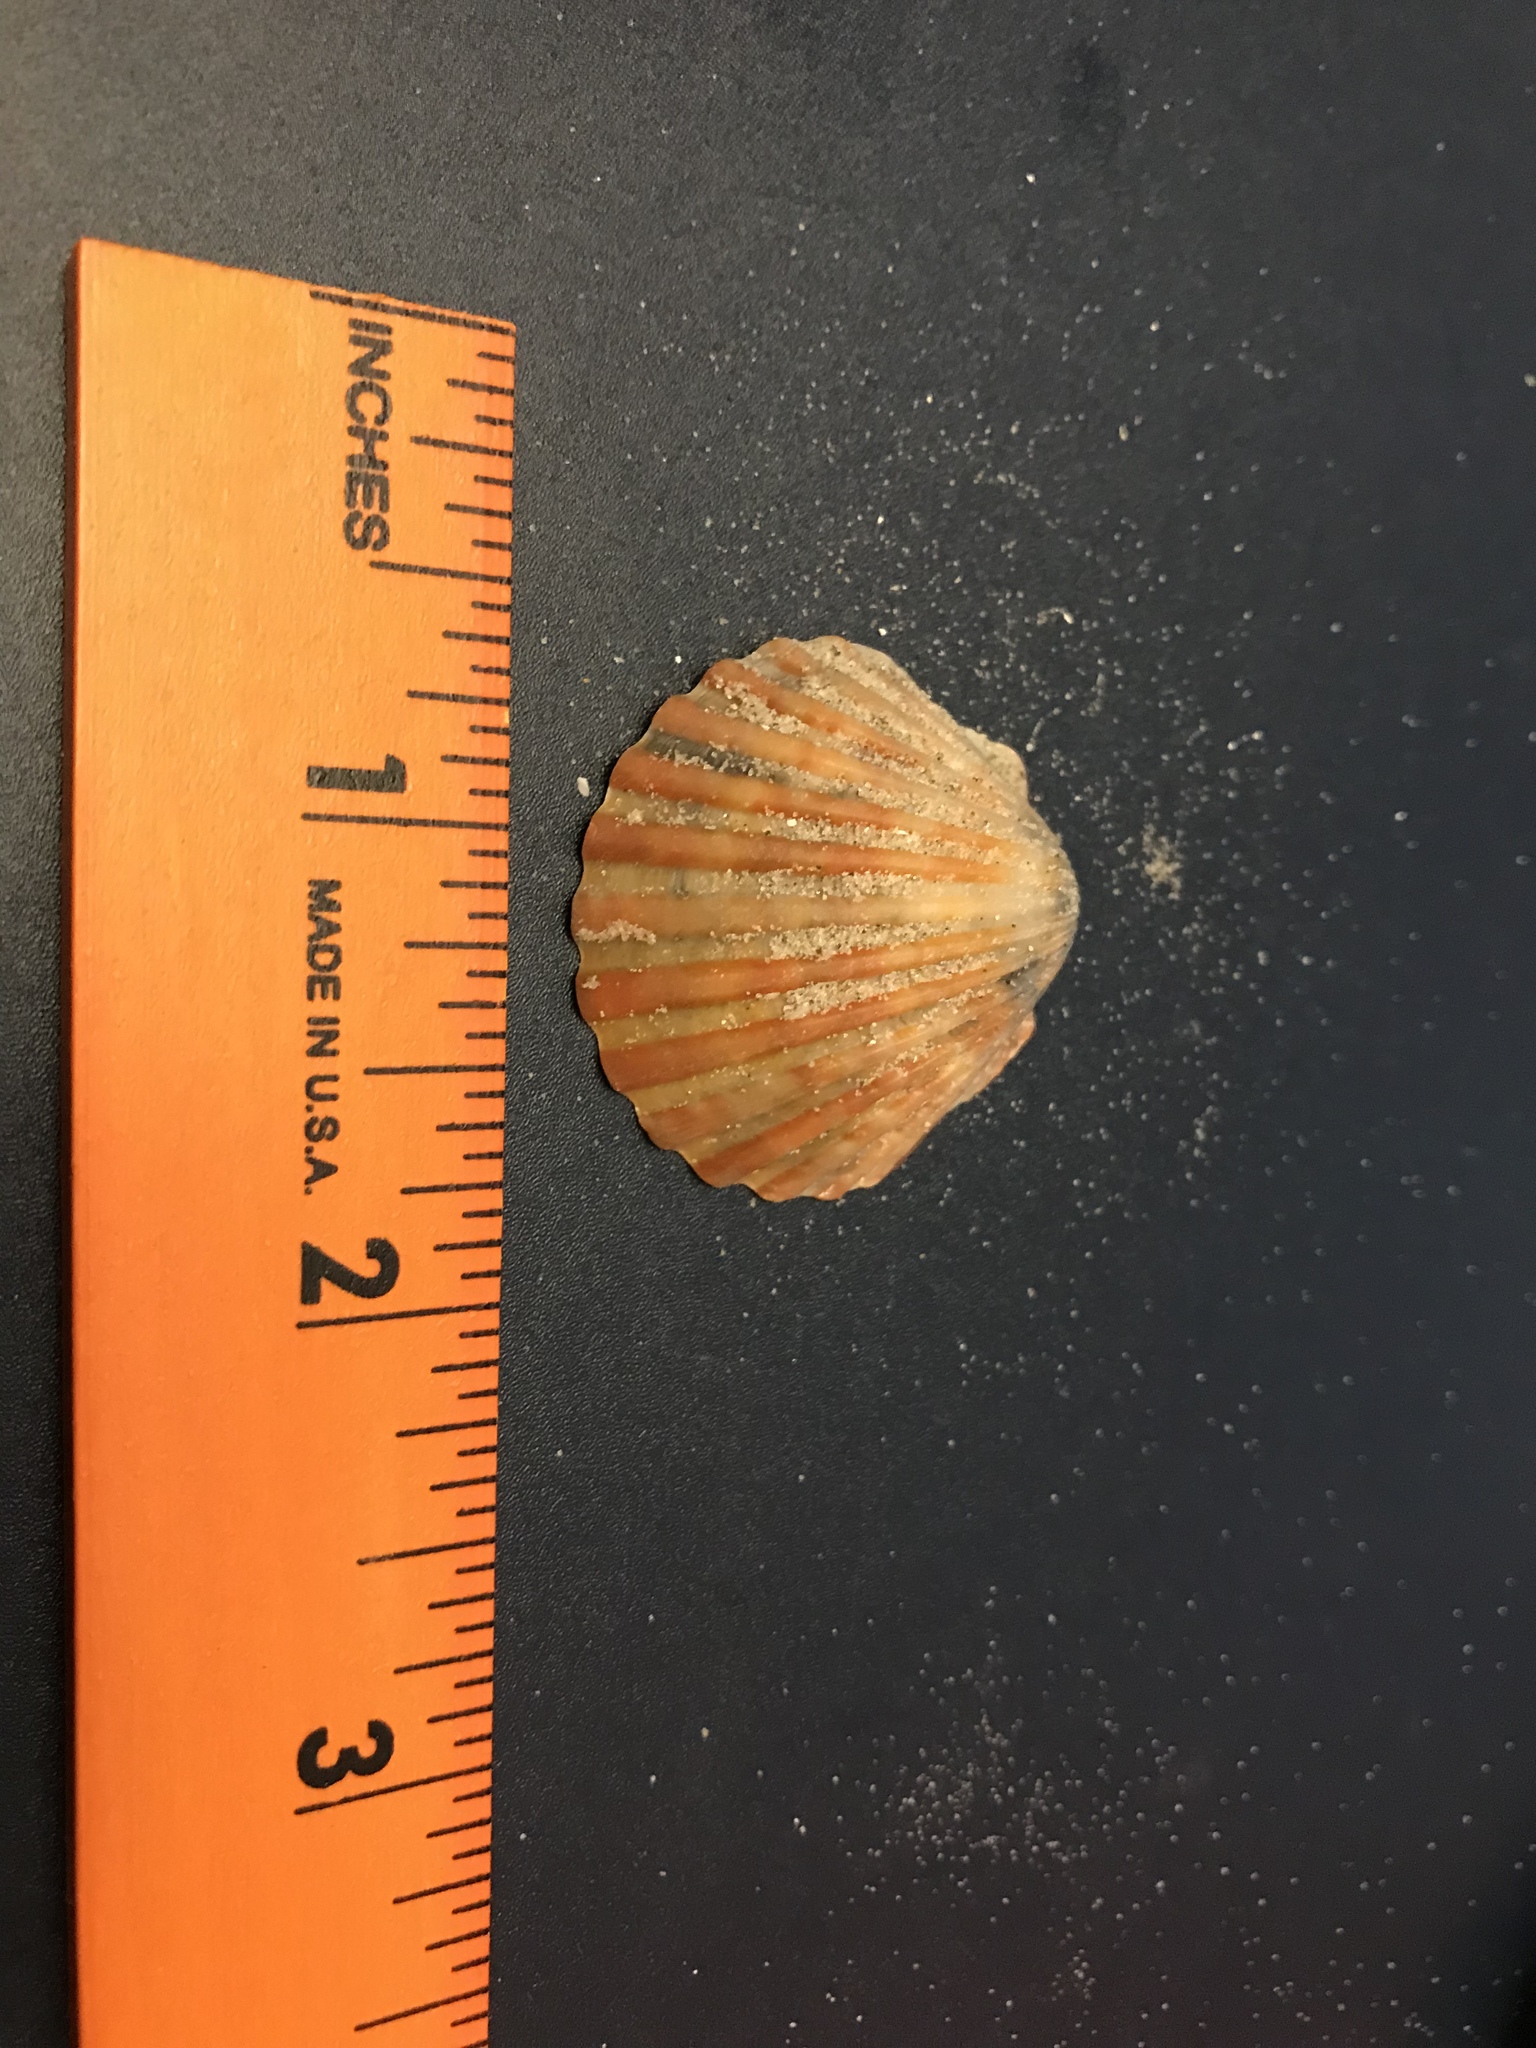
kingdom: Animalia
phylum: Mollusca
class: Bivalvia
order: Pectinida
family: Pectinidae
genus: Argopecten
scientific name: Argopecten irradians
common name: Atlantic bay scallop
